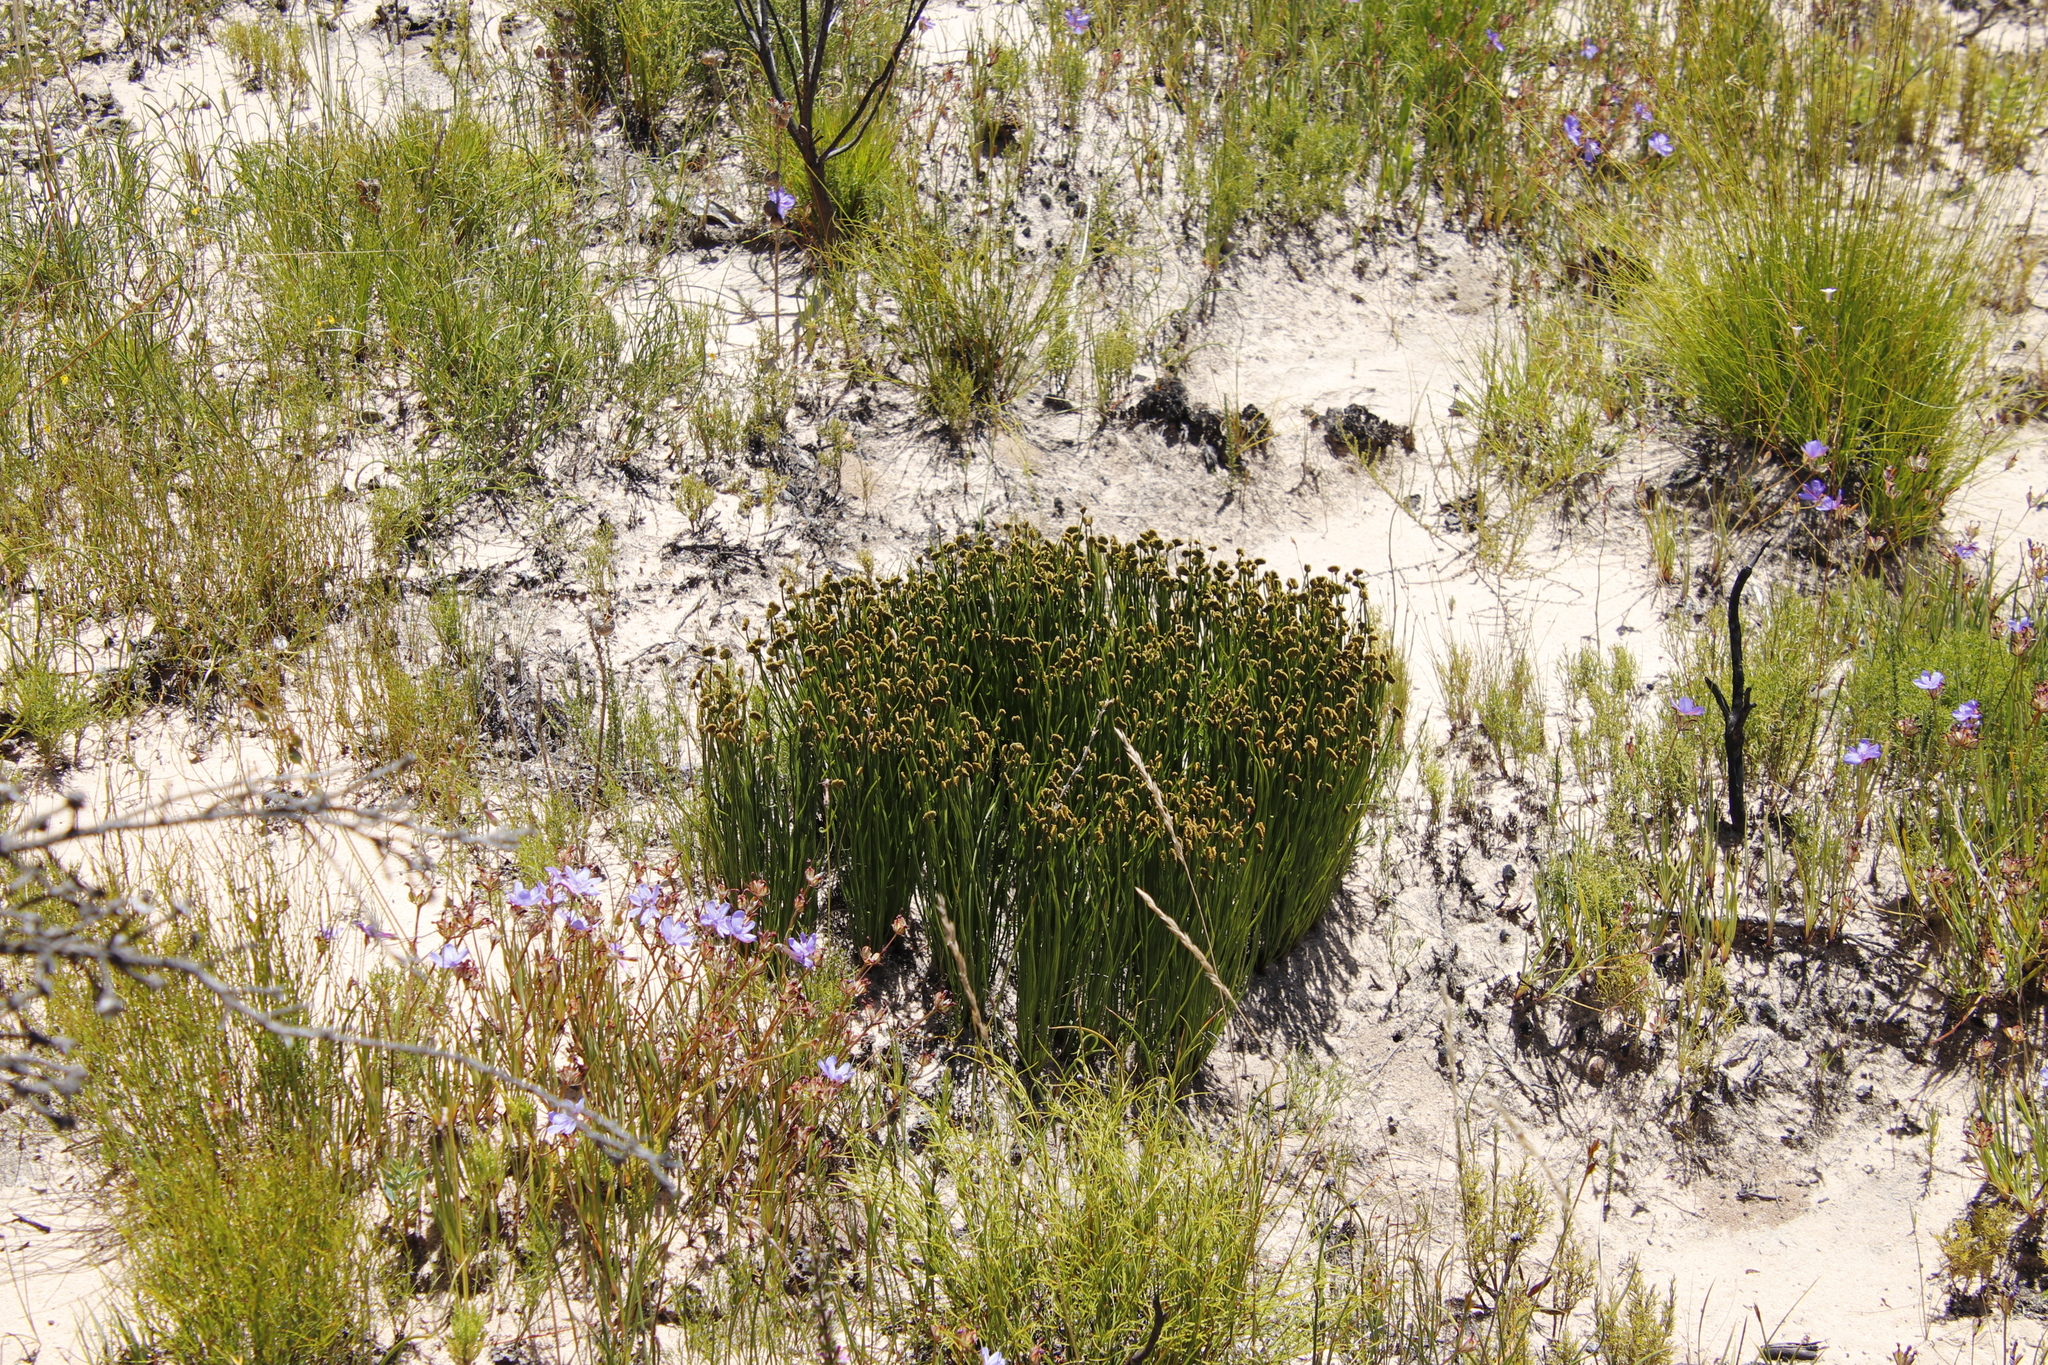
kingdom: Plantae
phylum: Tracheophyta
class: Polypodiopsida
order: Schizaeales
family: Schizaeaceae
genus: Schizaea
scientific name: Schizaea pectinata
